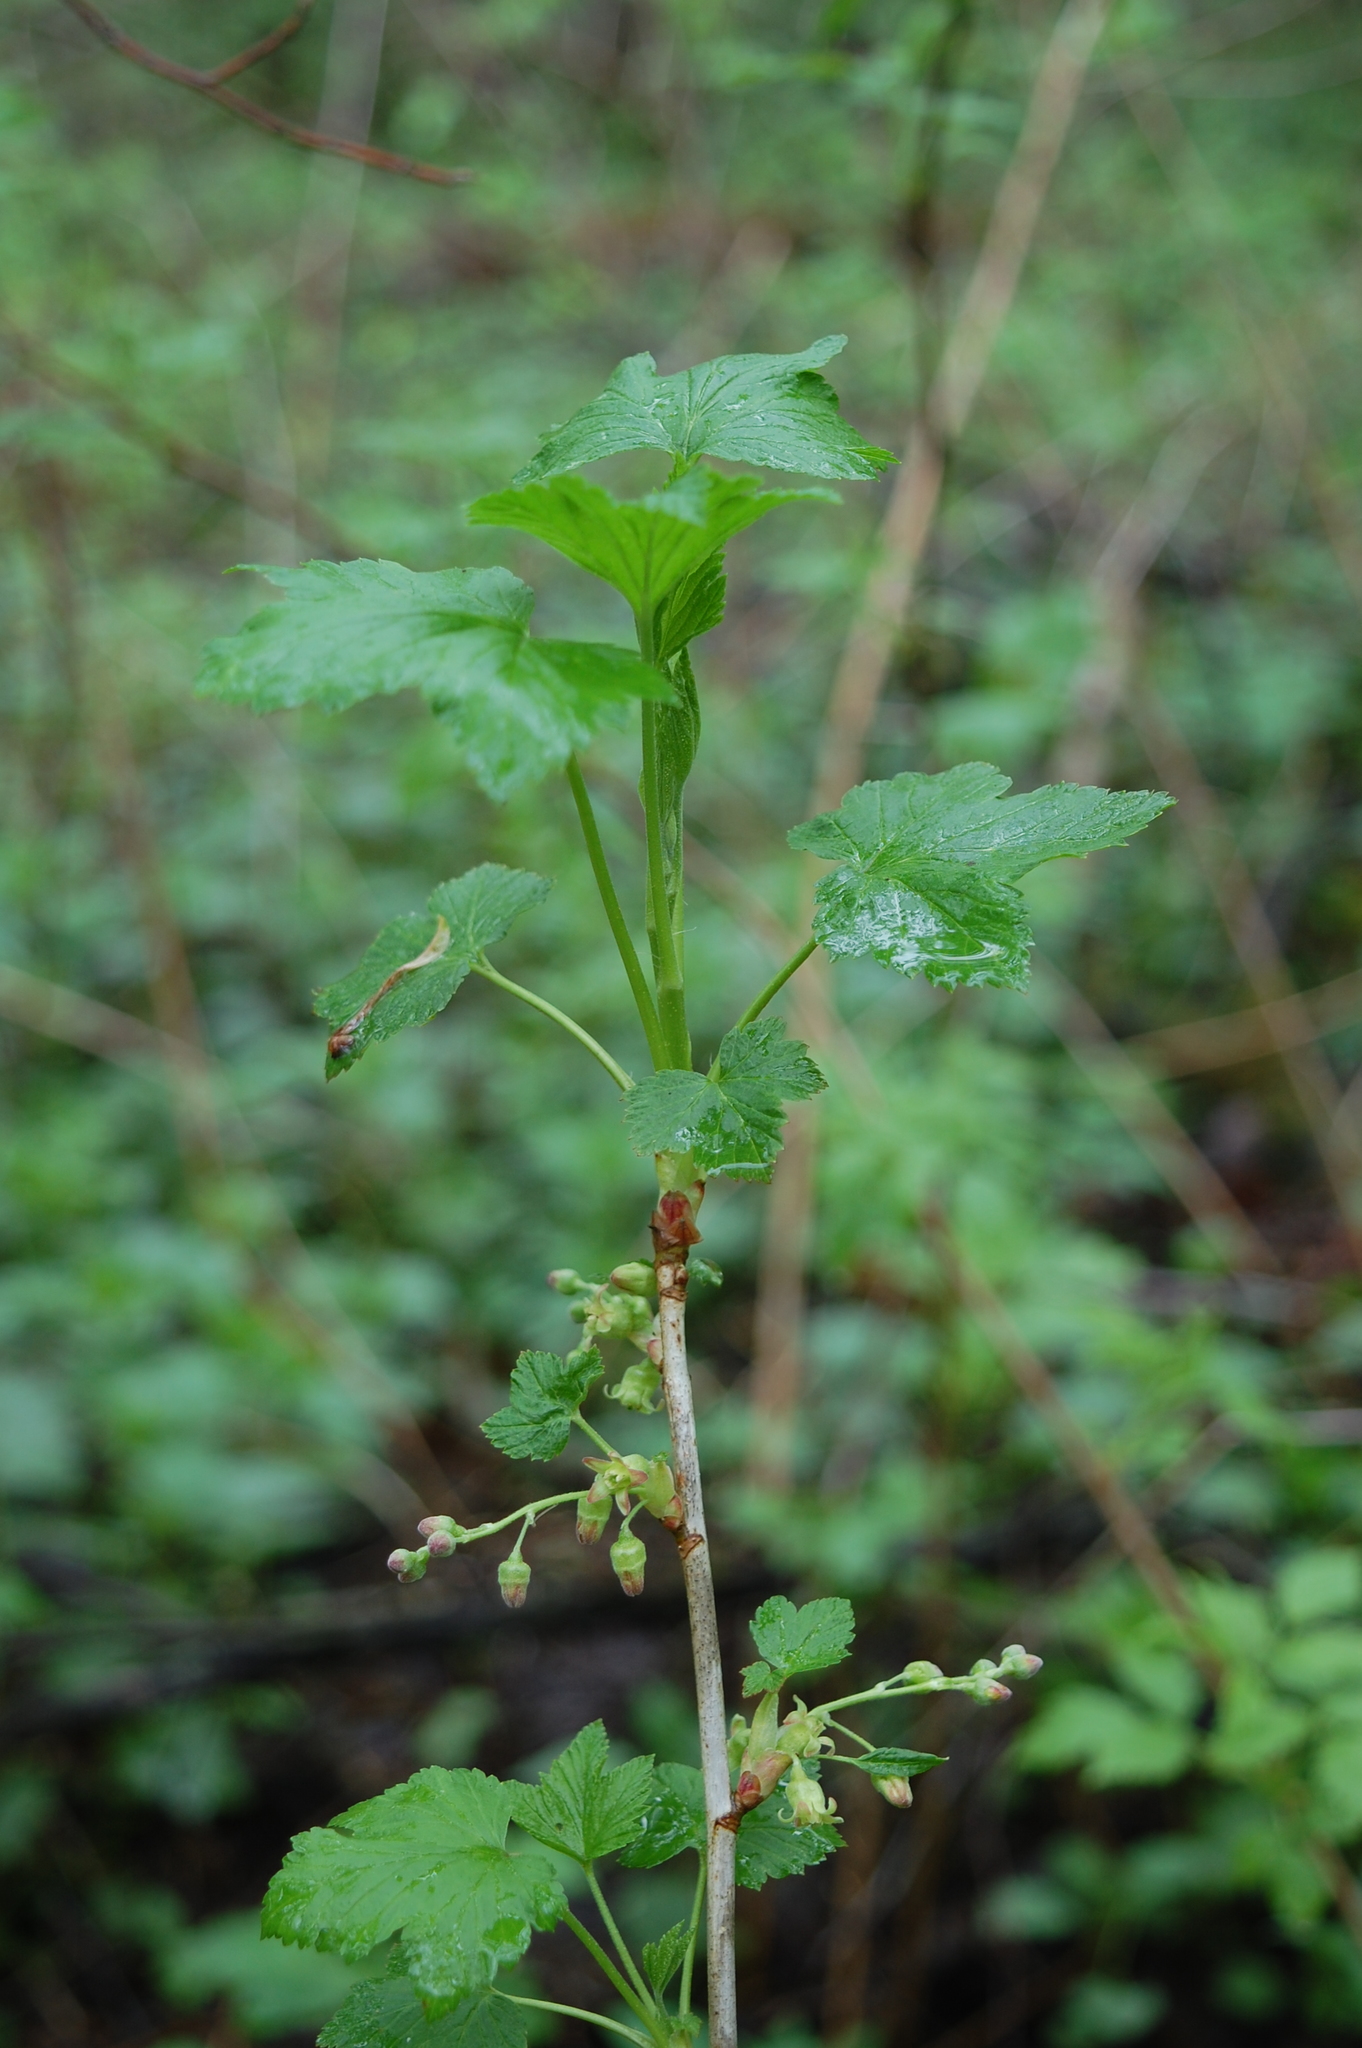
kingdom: Plantae
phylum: Tracheophyta
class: Magnoliopsida
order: Saxifragales
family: Grossulariaceae
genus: Ribes
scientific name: Ribes nigrum
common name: Black currant
